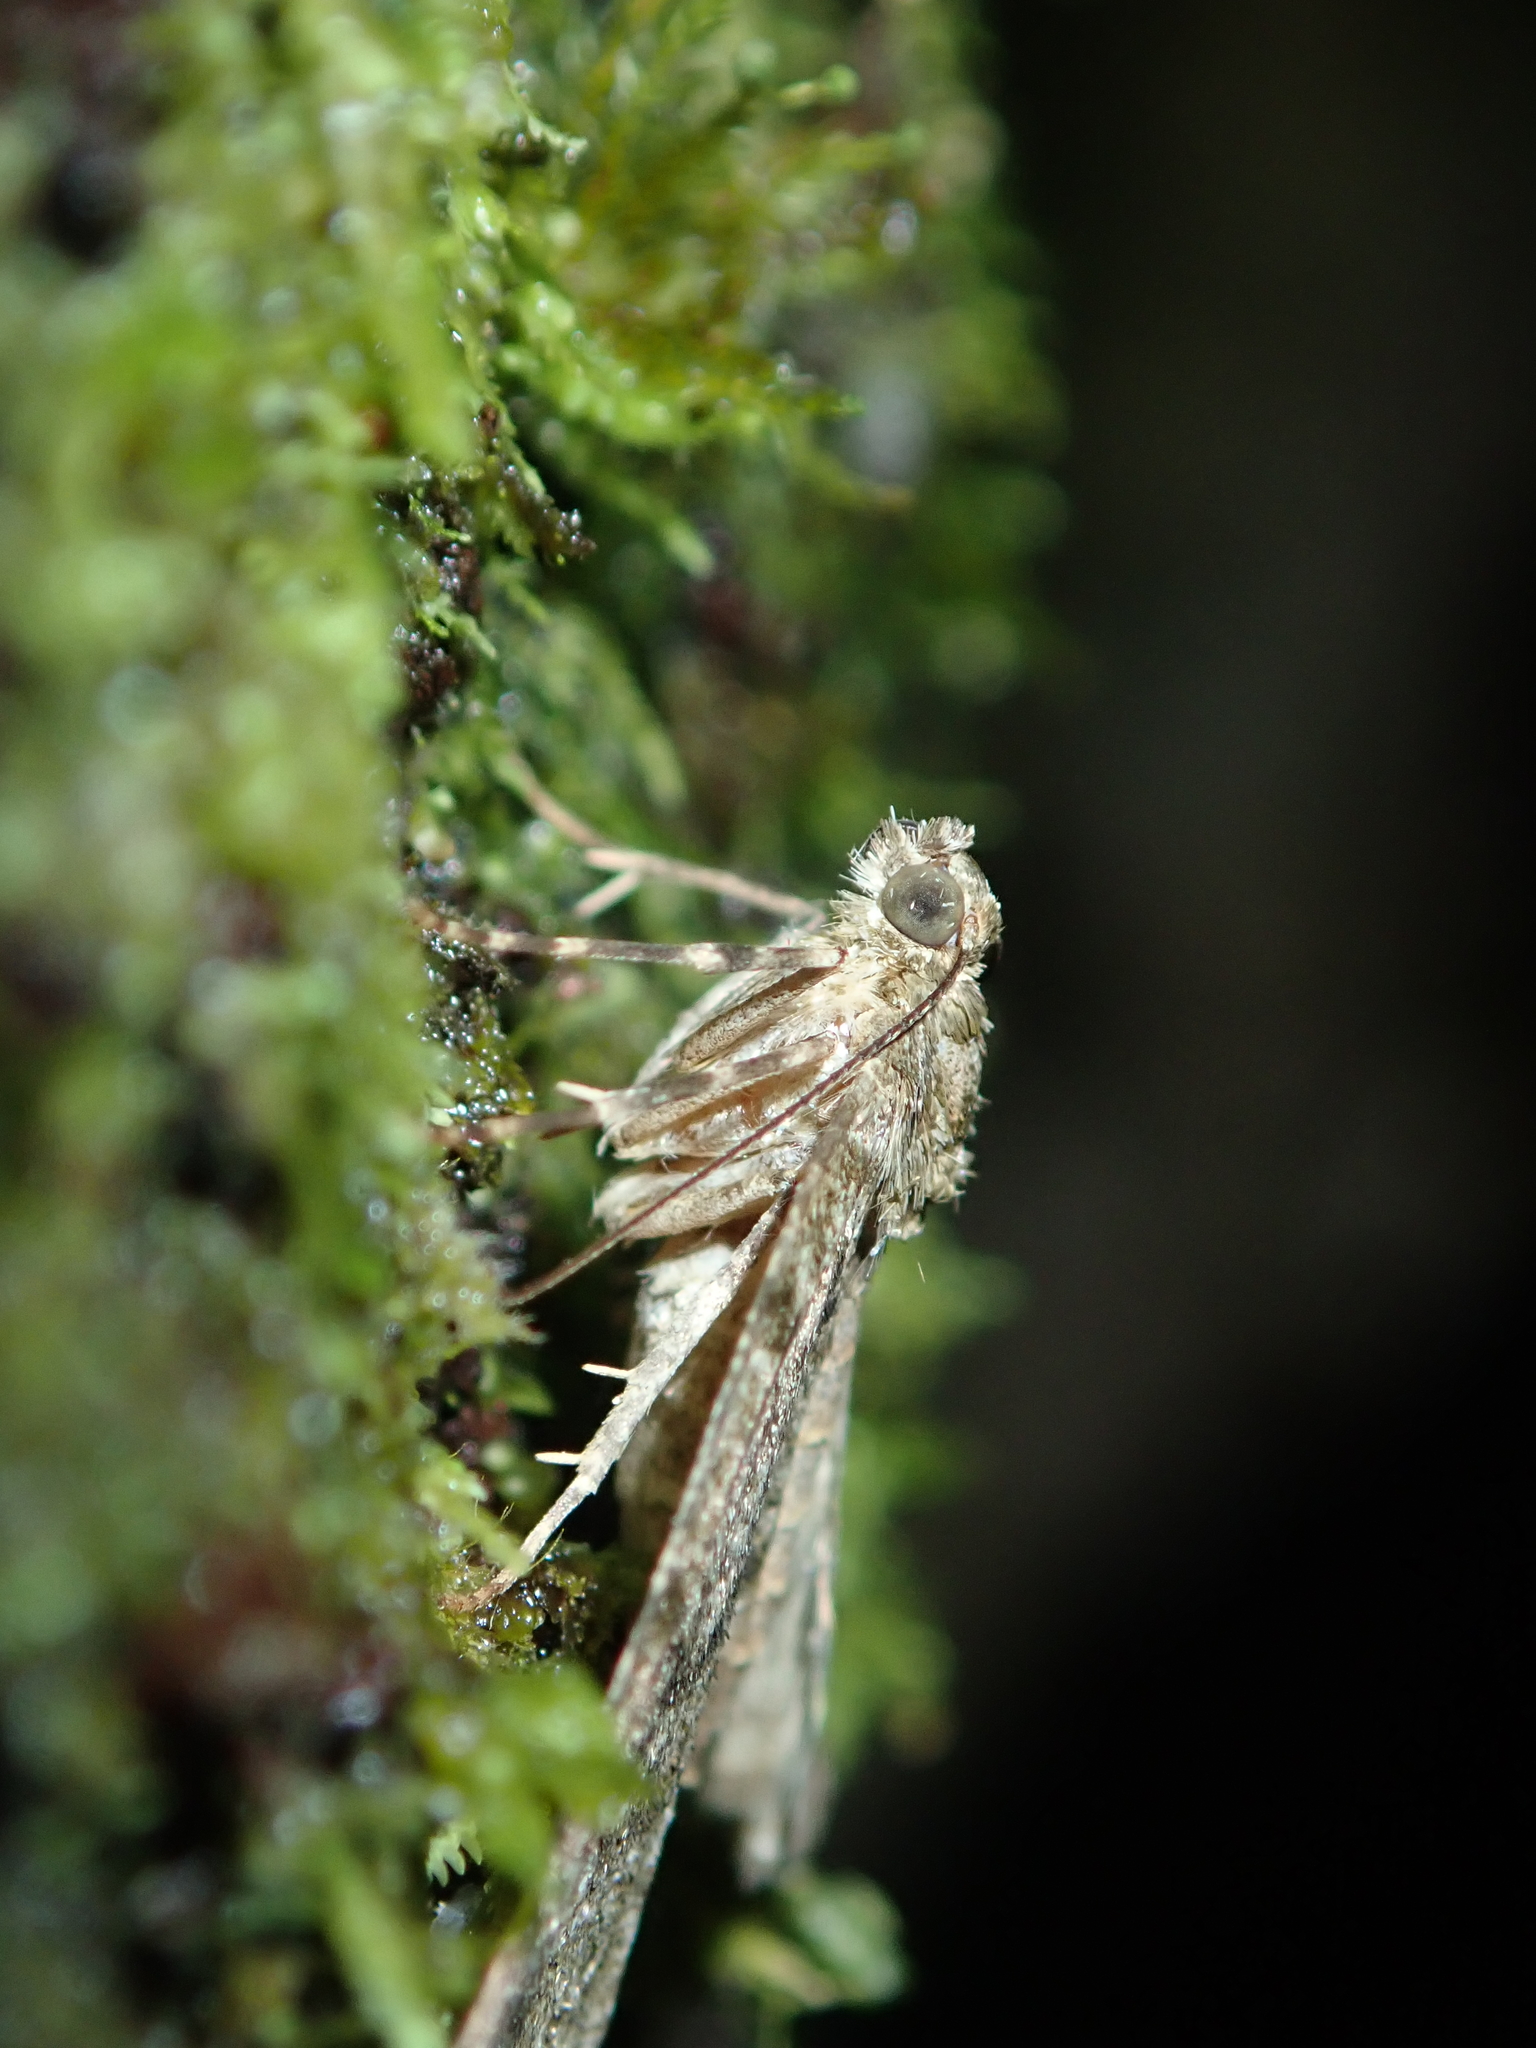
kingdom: Animalia
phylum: Arthropoda
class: Insecta
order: Lepidoptera
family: Geometridae
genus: Pseudocoremia
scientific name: Pseudocoremia indistincta
